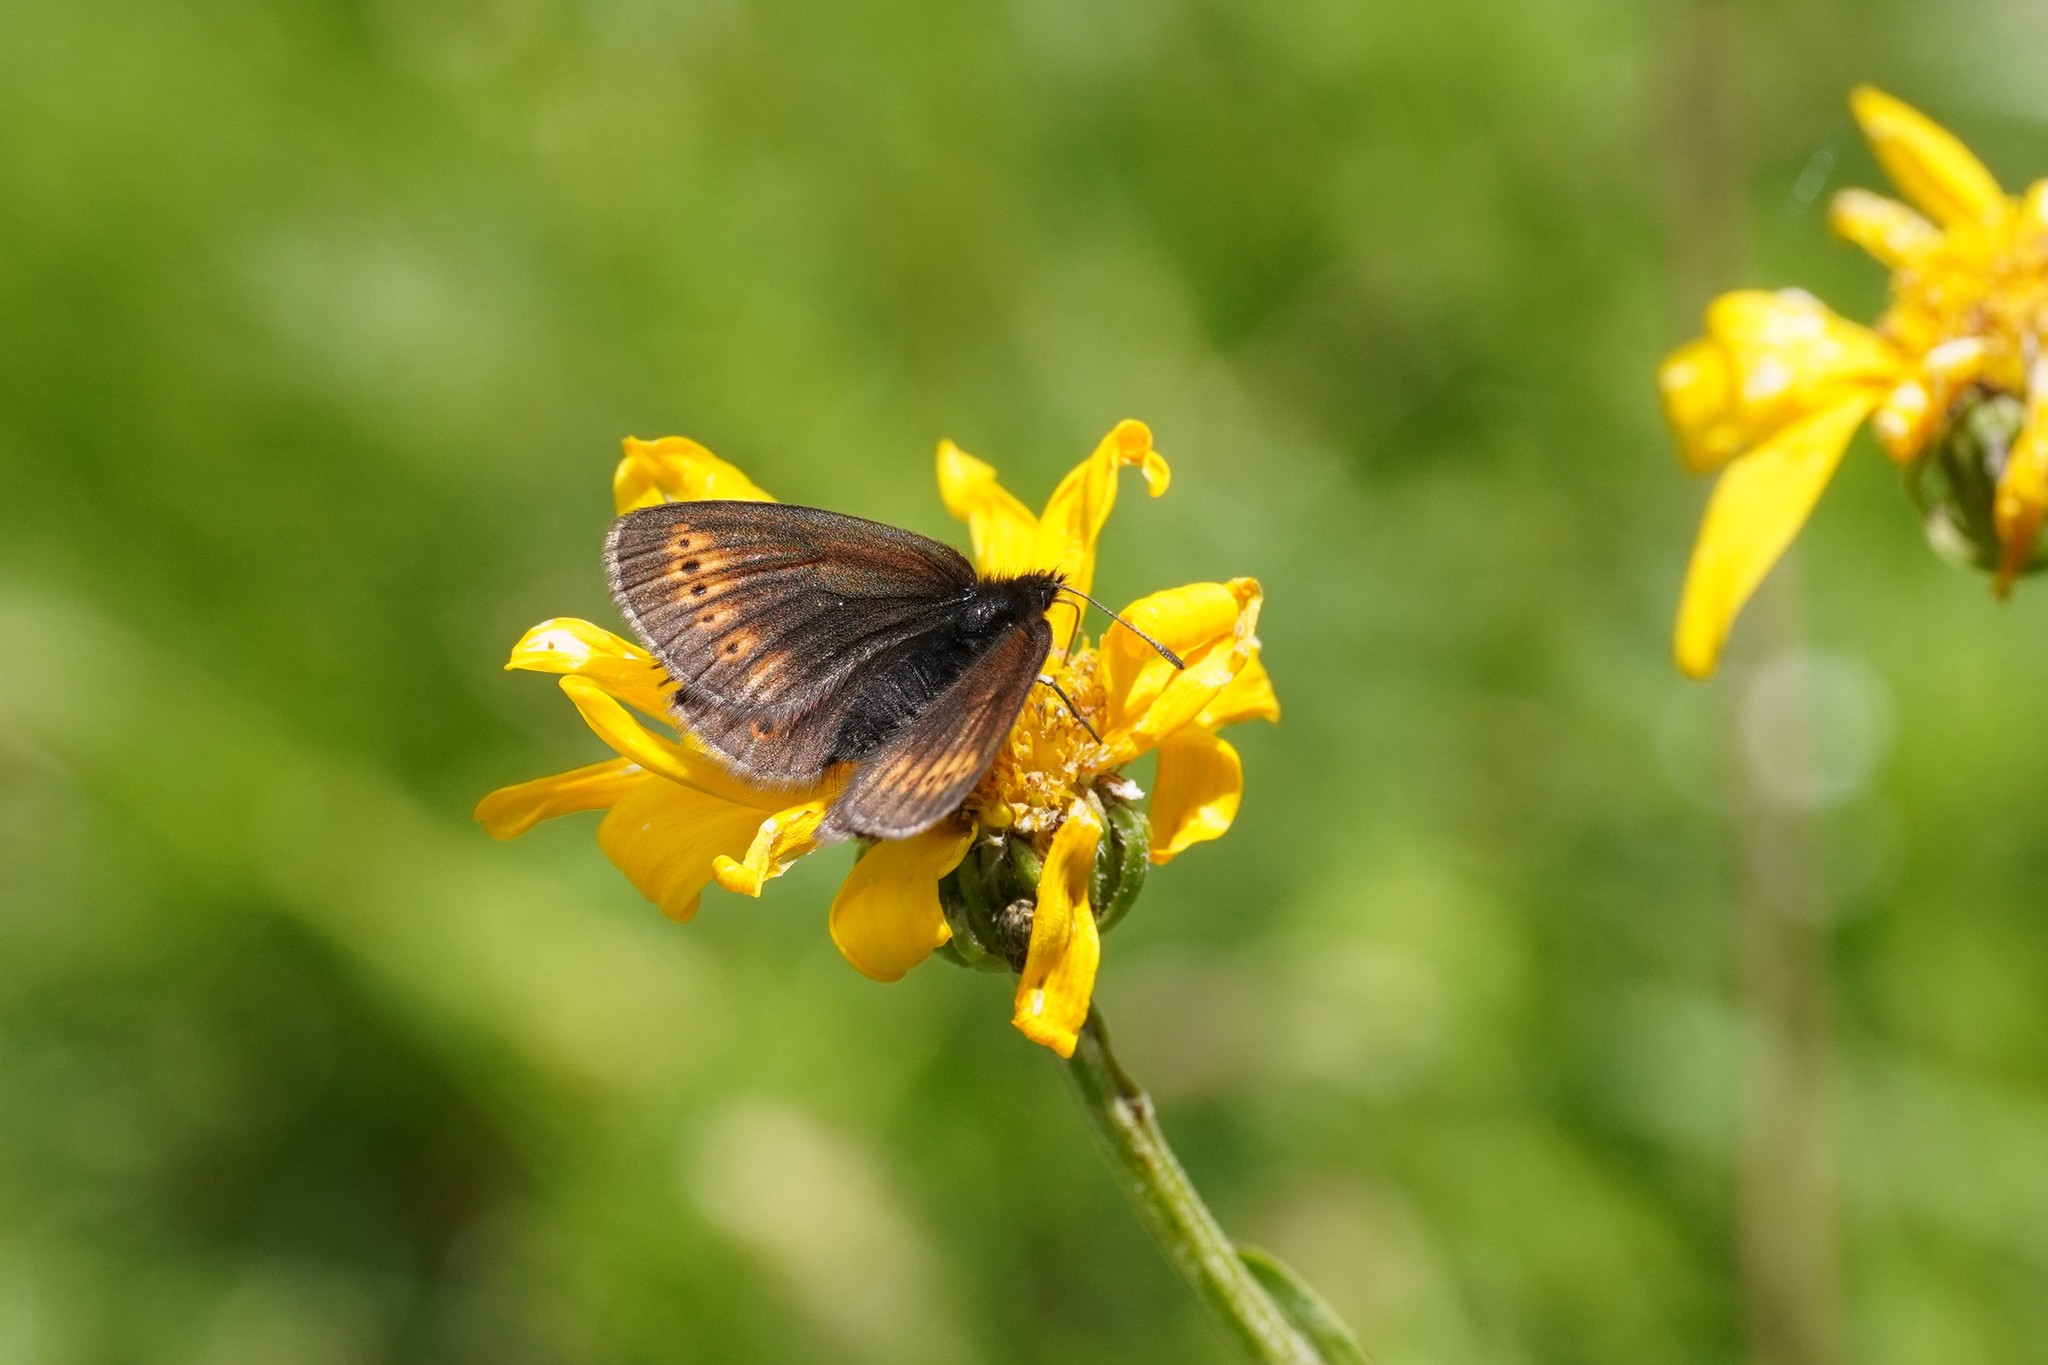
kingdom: Animalia
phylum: Arthropoda
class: Insecta
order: Lepidoptera
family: Nymphalidae
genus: Erebia
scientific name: Erebia flavofasciata
